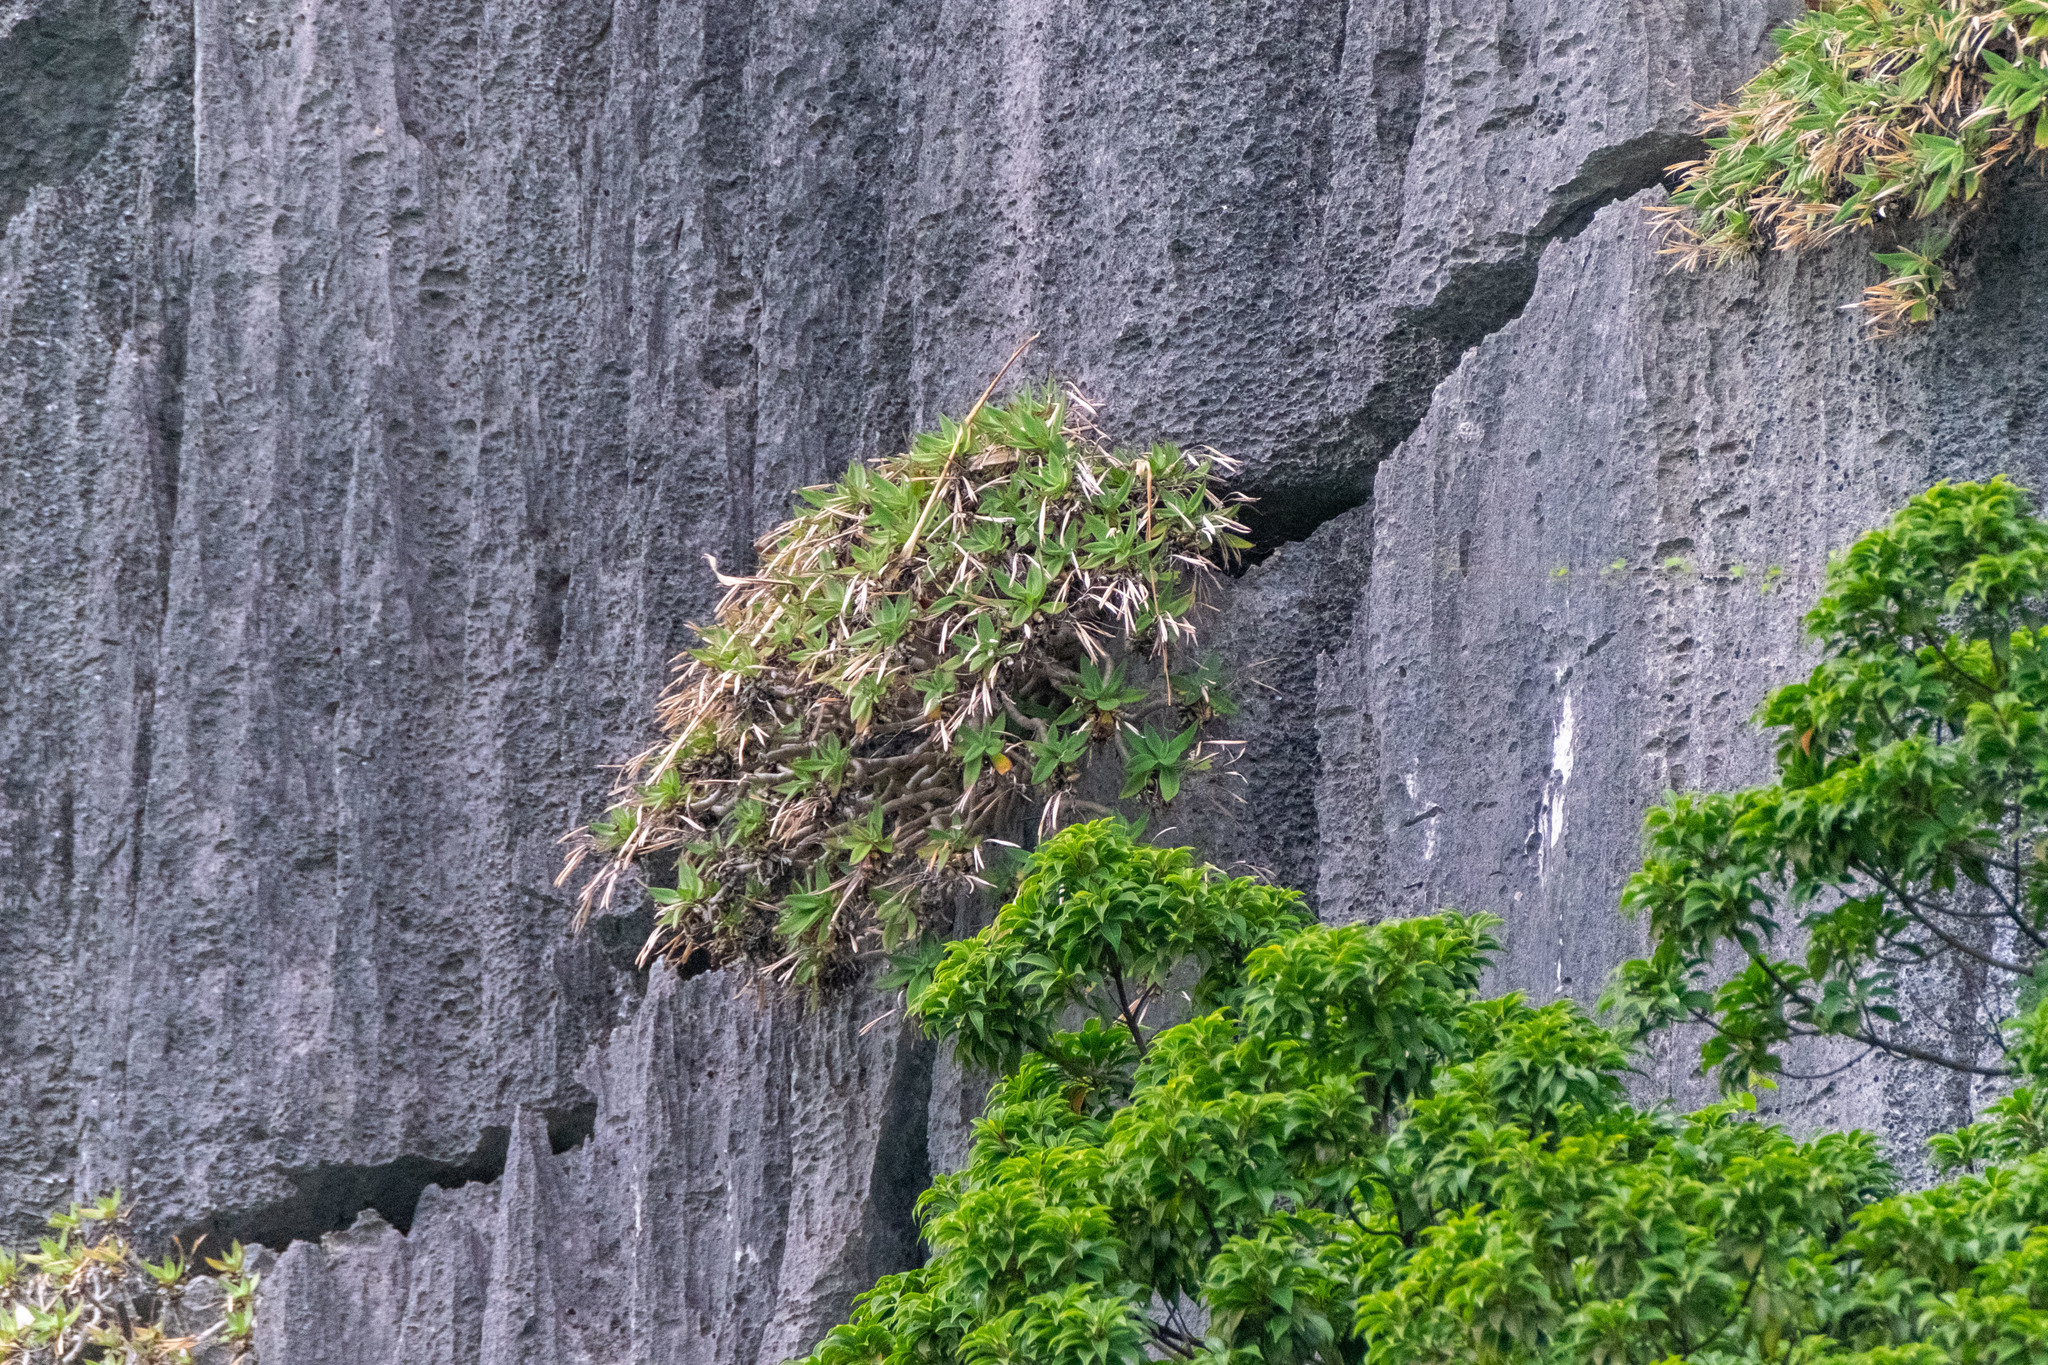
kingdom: Plantae
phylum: Tracheophyta
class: Magnoliopsida
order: Lamiales
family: Gesneriaceae
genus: Primulina
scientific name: Primulina drakei
